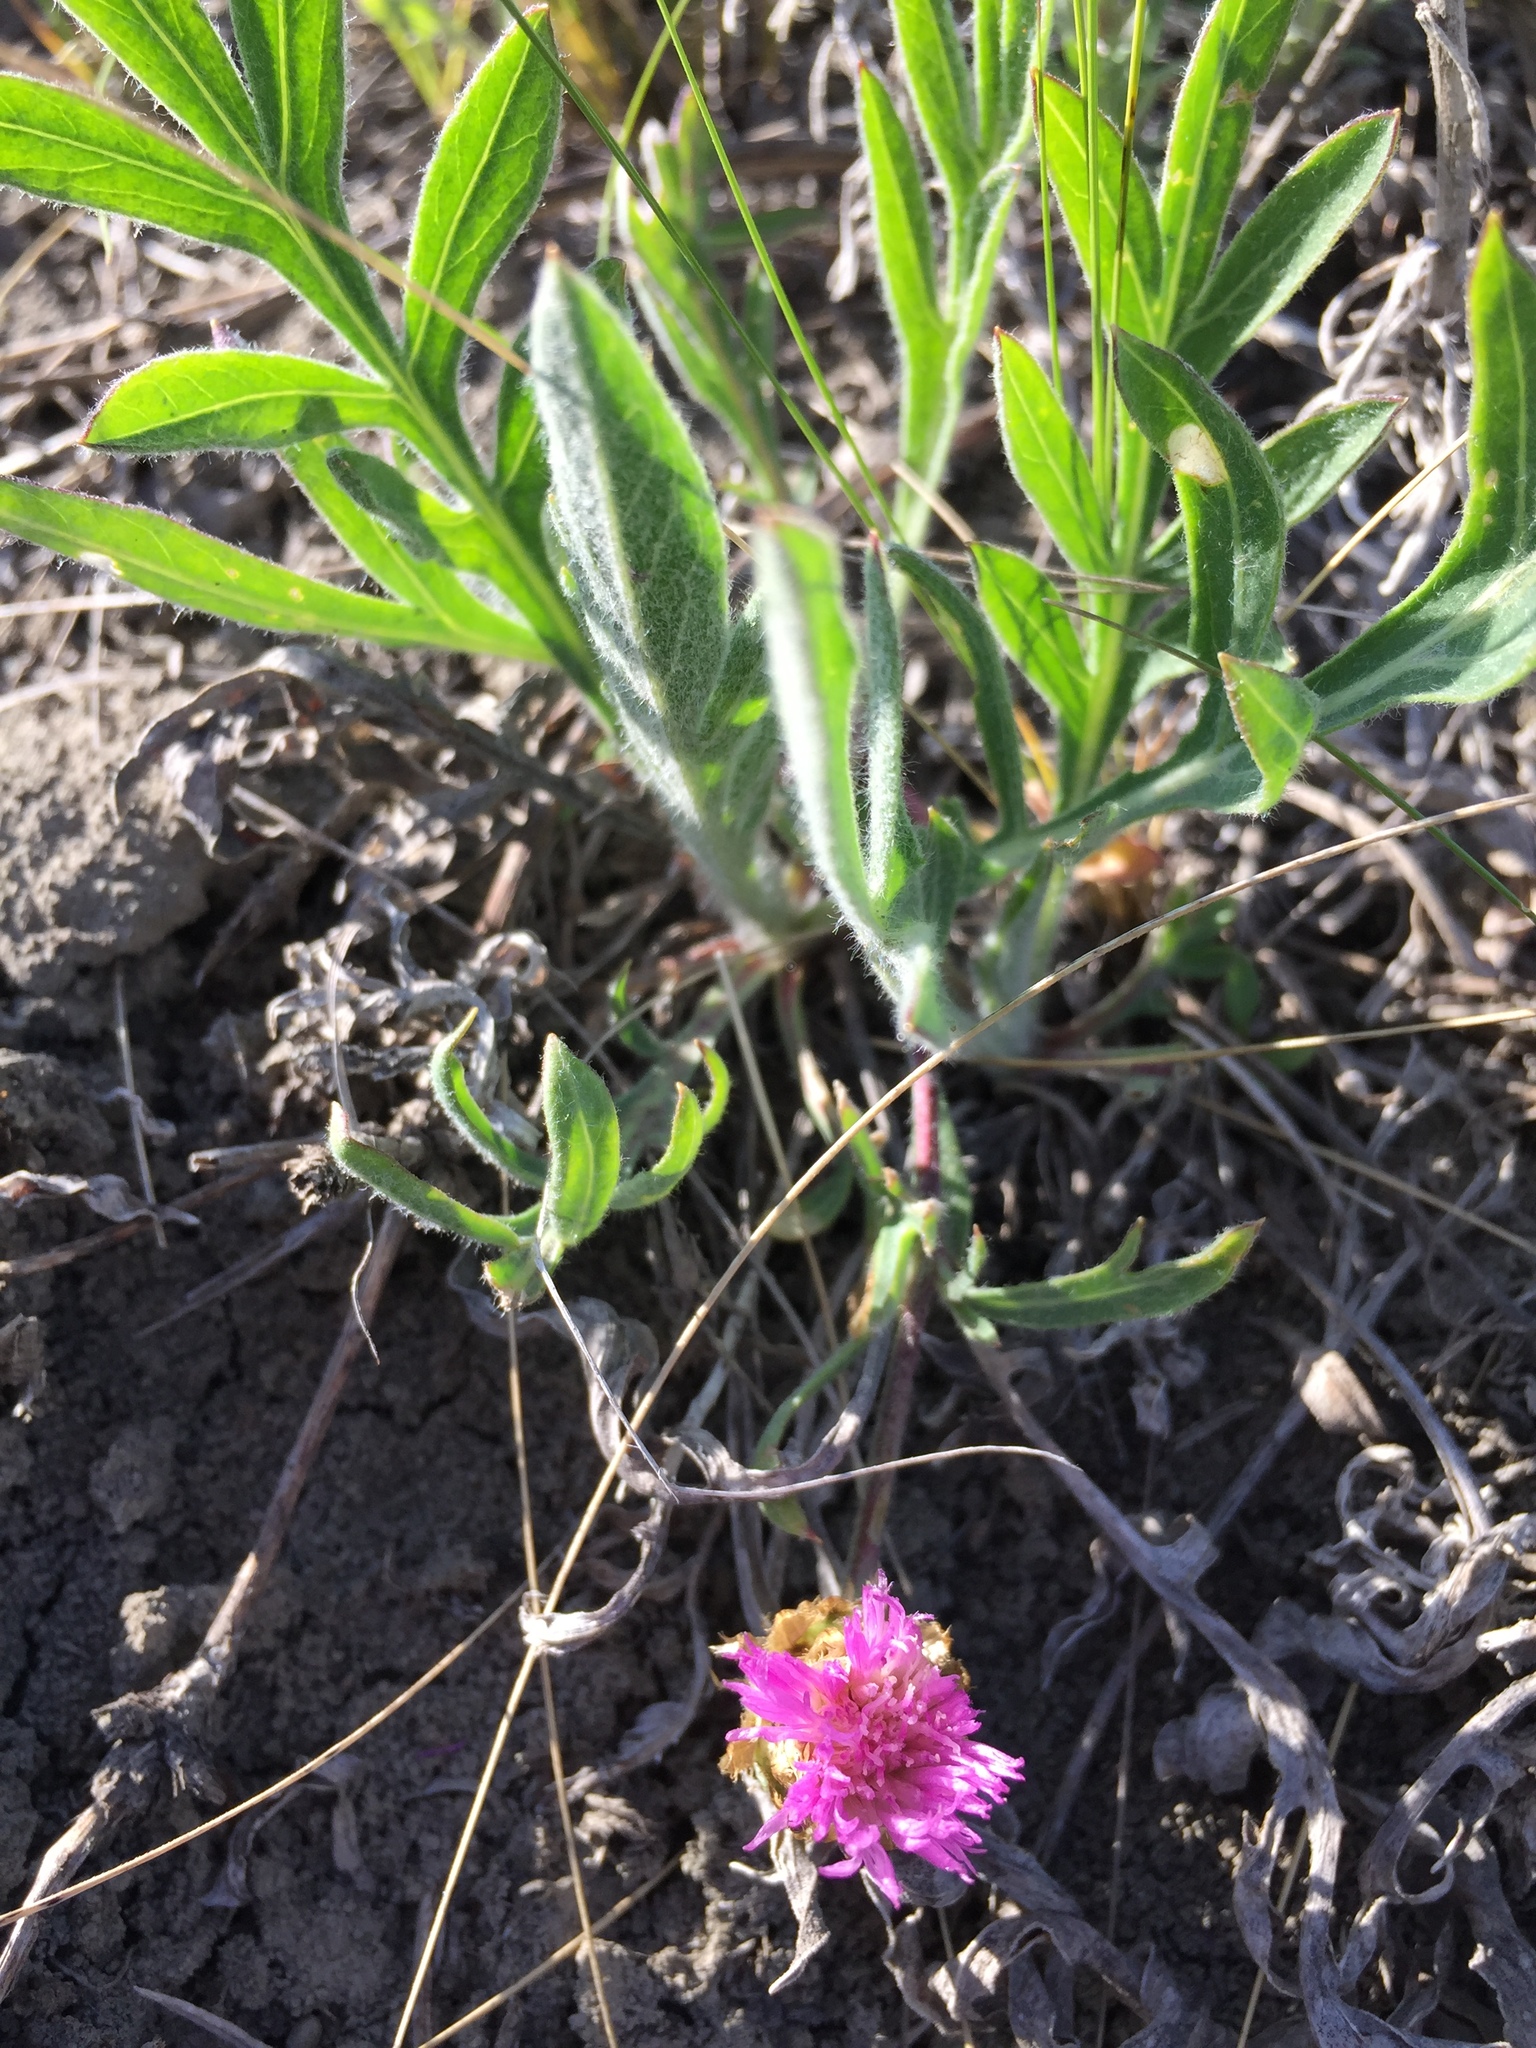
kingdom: Plantae
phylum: Tracheophyta
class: Magnoliopsida
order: Asterales
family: Asteraceae
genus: Psephellus
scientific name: Psephellus marschallianus
